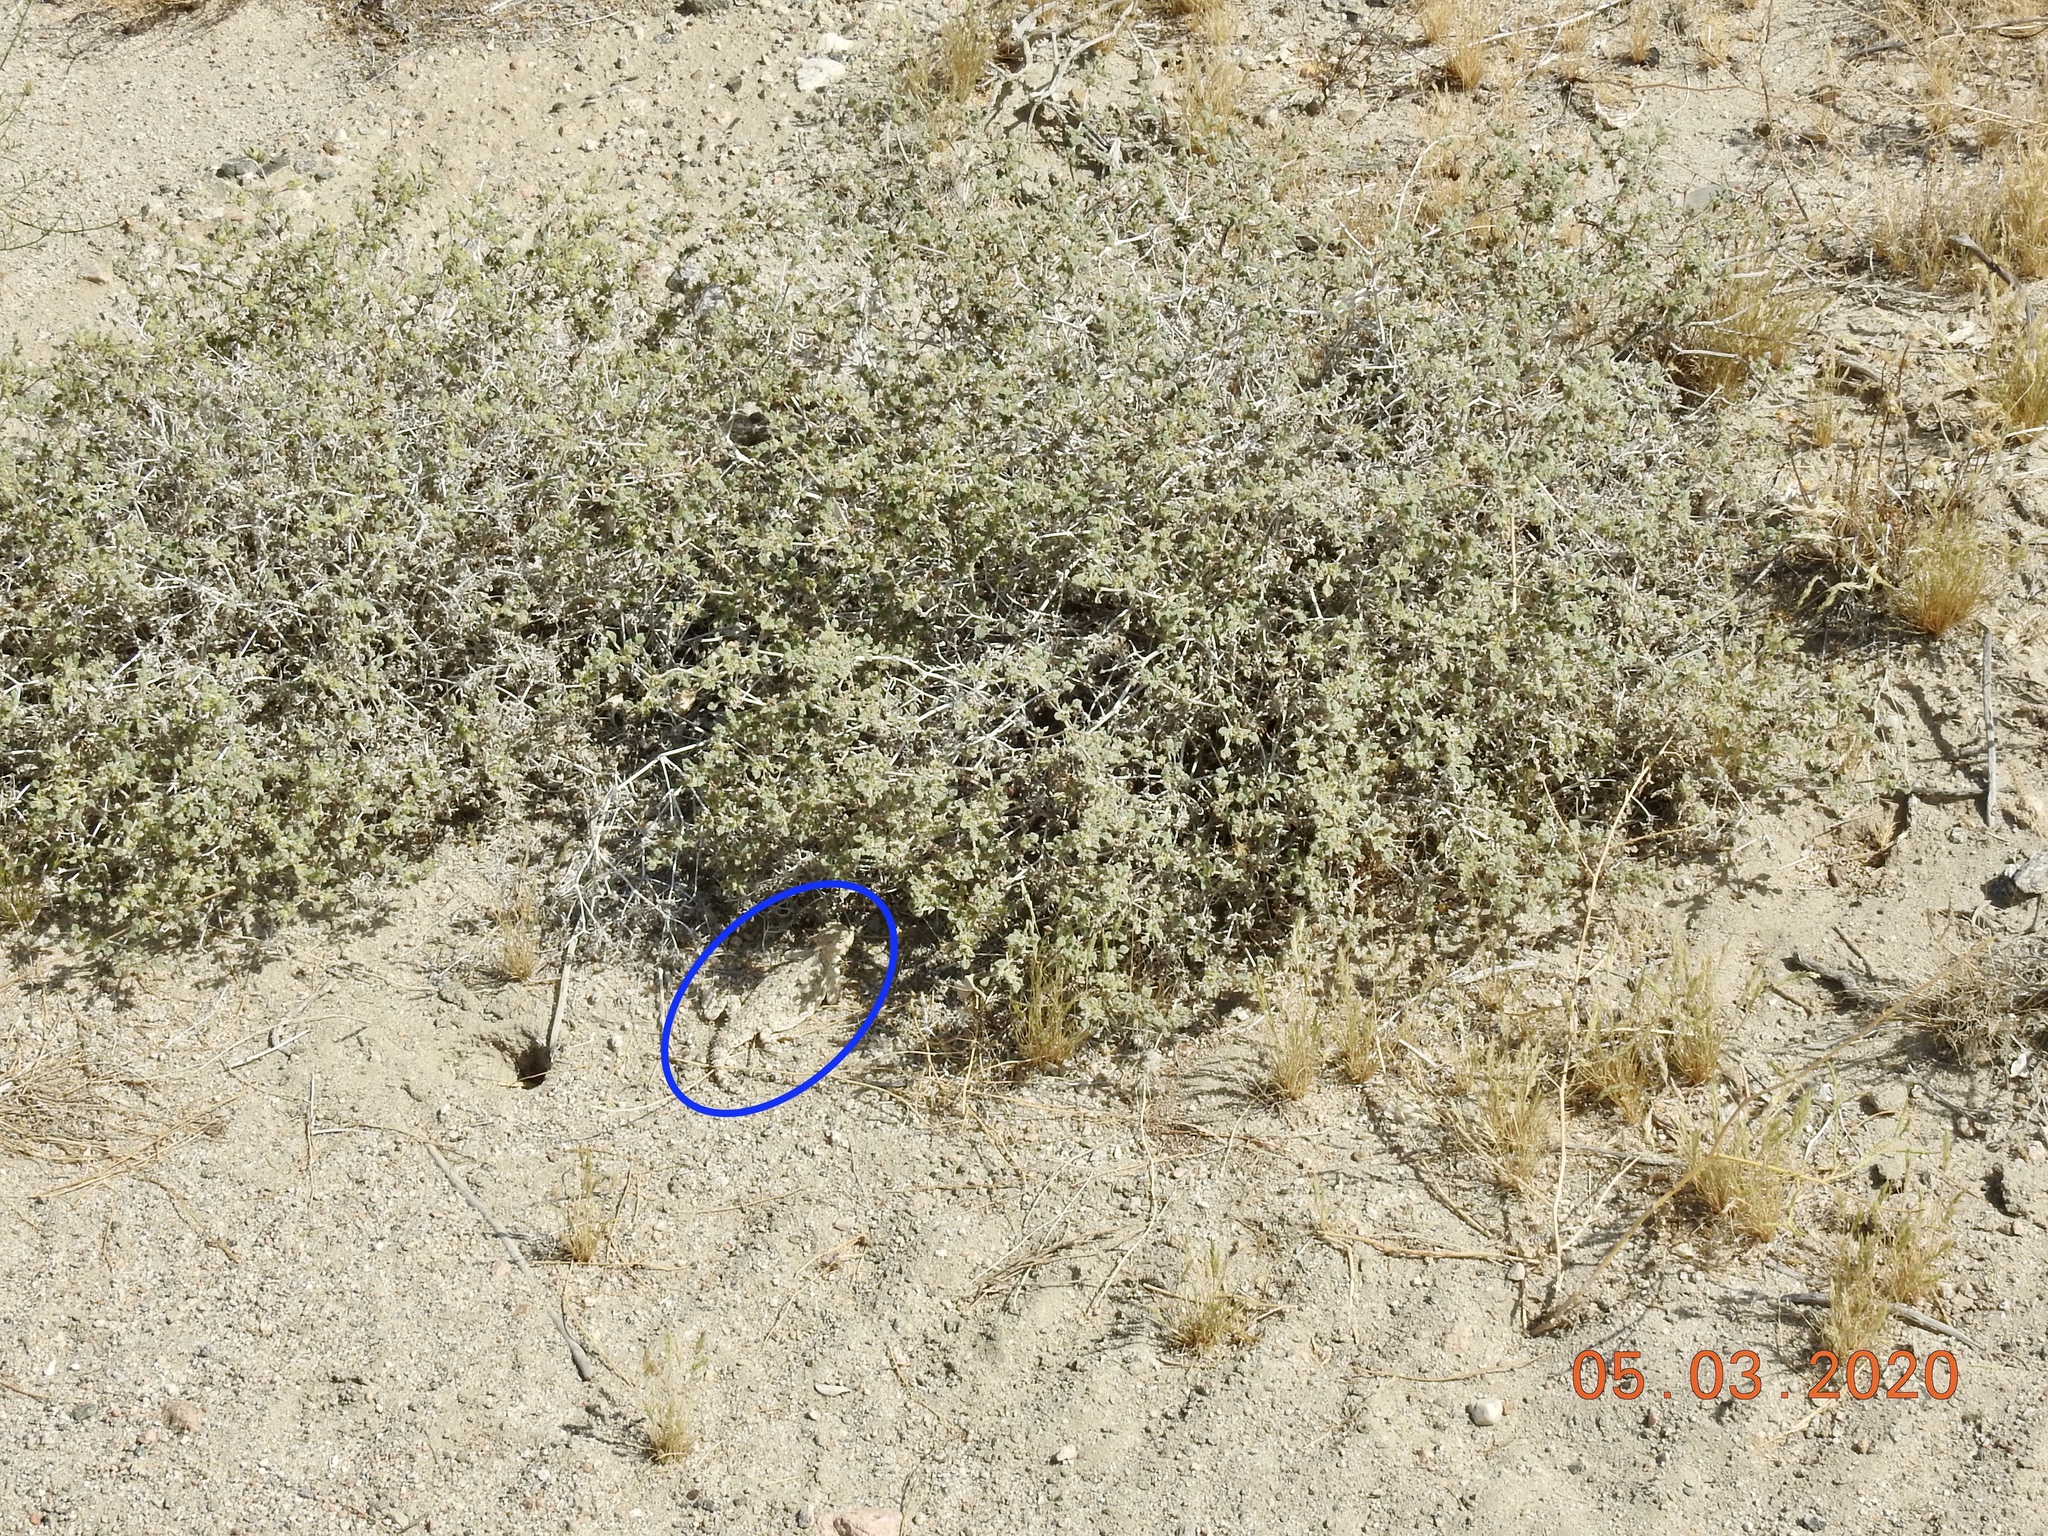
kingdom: Animalia
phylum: Chordata
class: Squamata
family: Phrynosomatidae
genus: Phrynosoma
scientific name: Phrynosoma platyrhinos
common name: Desert horned lizard
